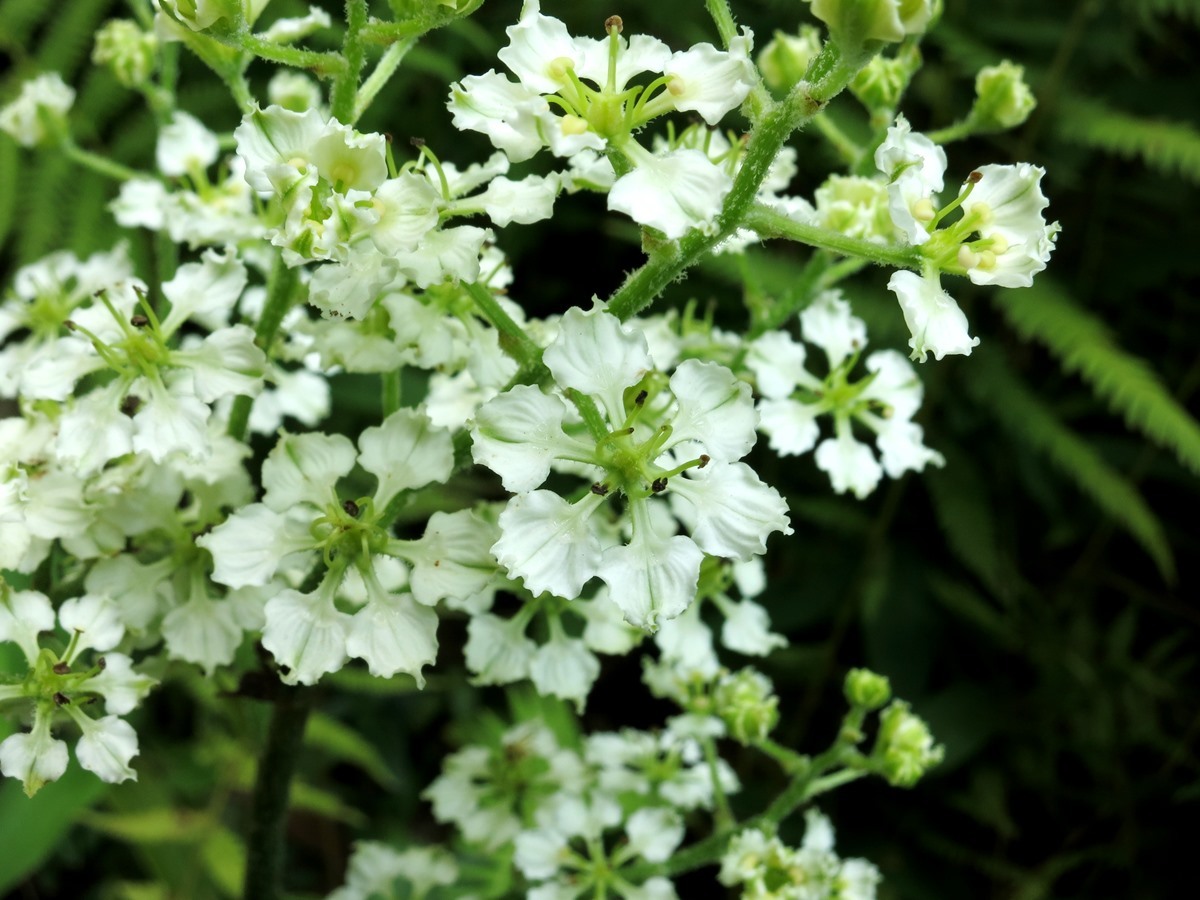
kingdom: Plantae
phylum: Tracheophyta
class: Liliopsida
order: Liliales
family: Melanthiaceae
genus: Veratrum
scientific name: Veratrum hybridum
